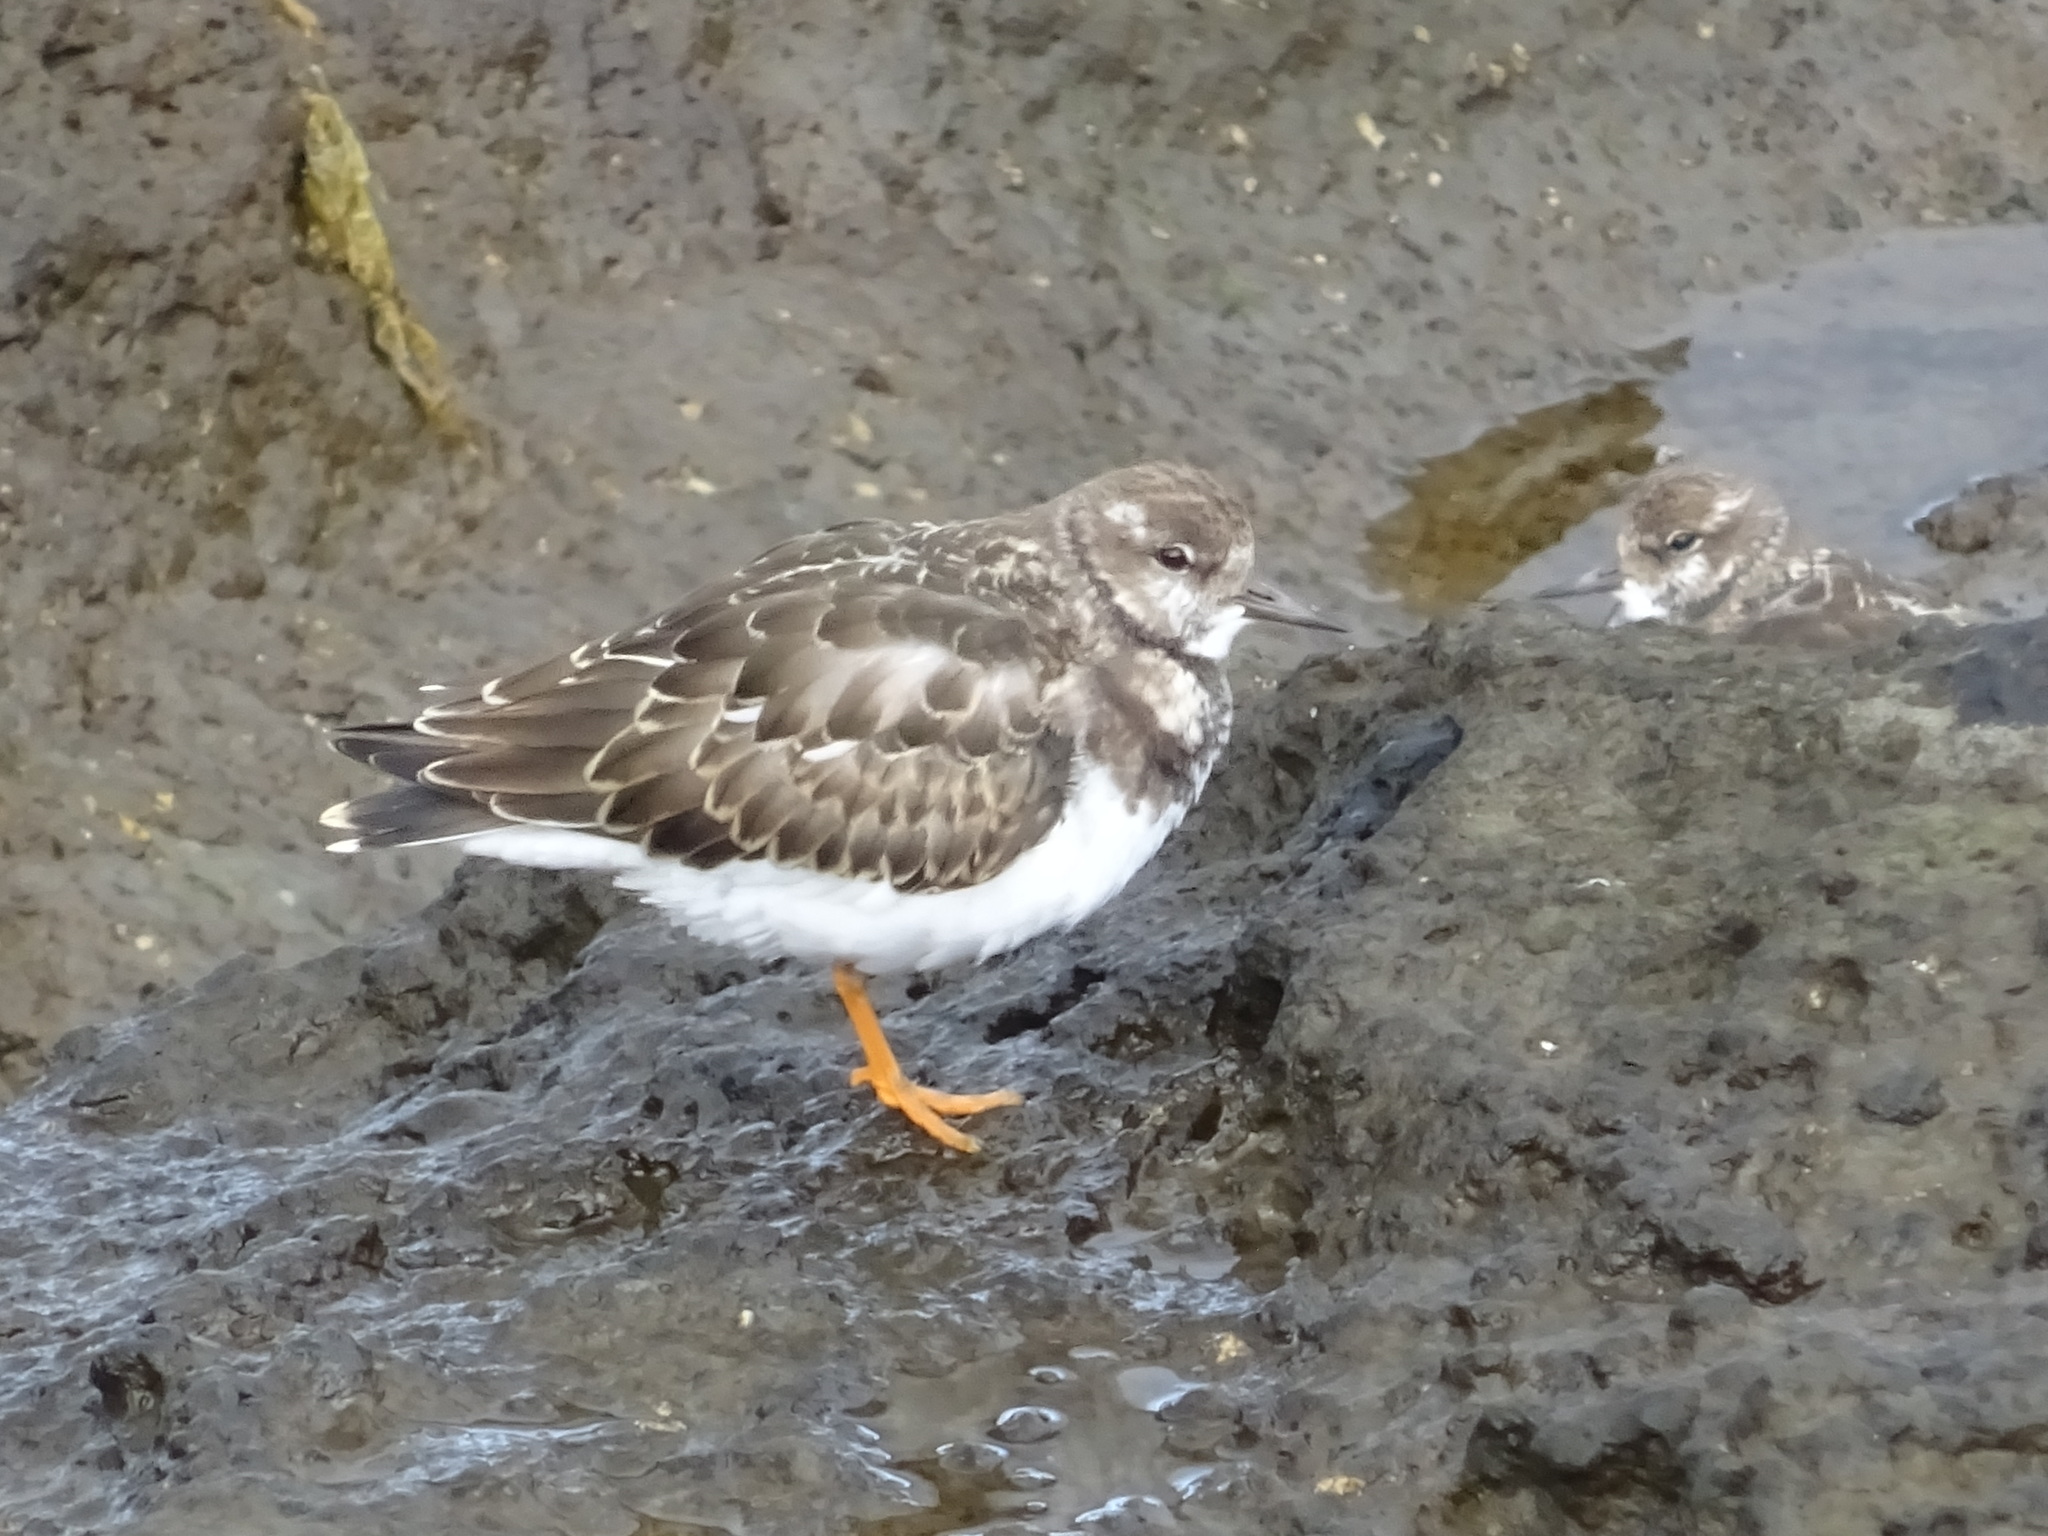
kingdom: Animalia
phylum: Chordata
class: Aves
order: Charadriiformes
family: Scolopacidae
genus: Arenaria
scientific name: Arenaria interpres
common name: Ruddy turnstone
